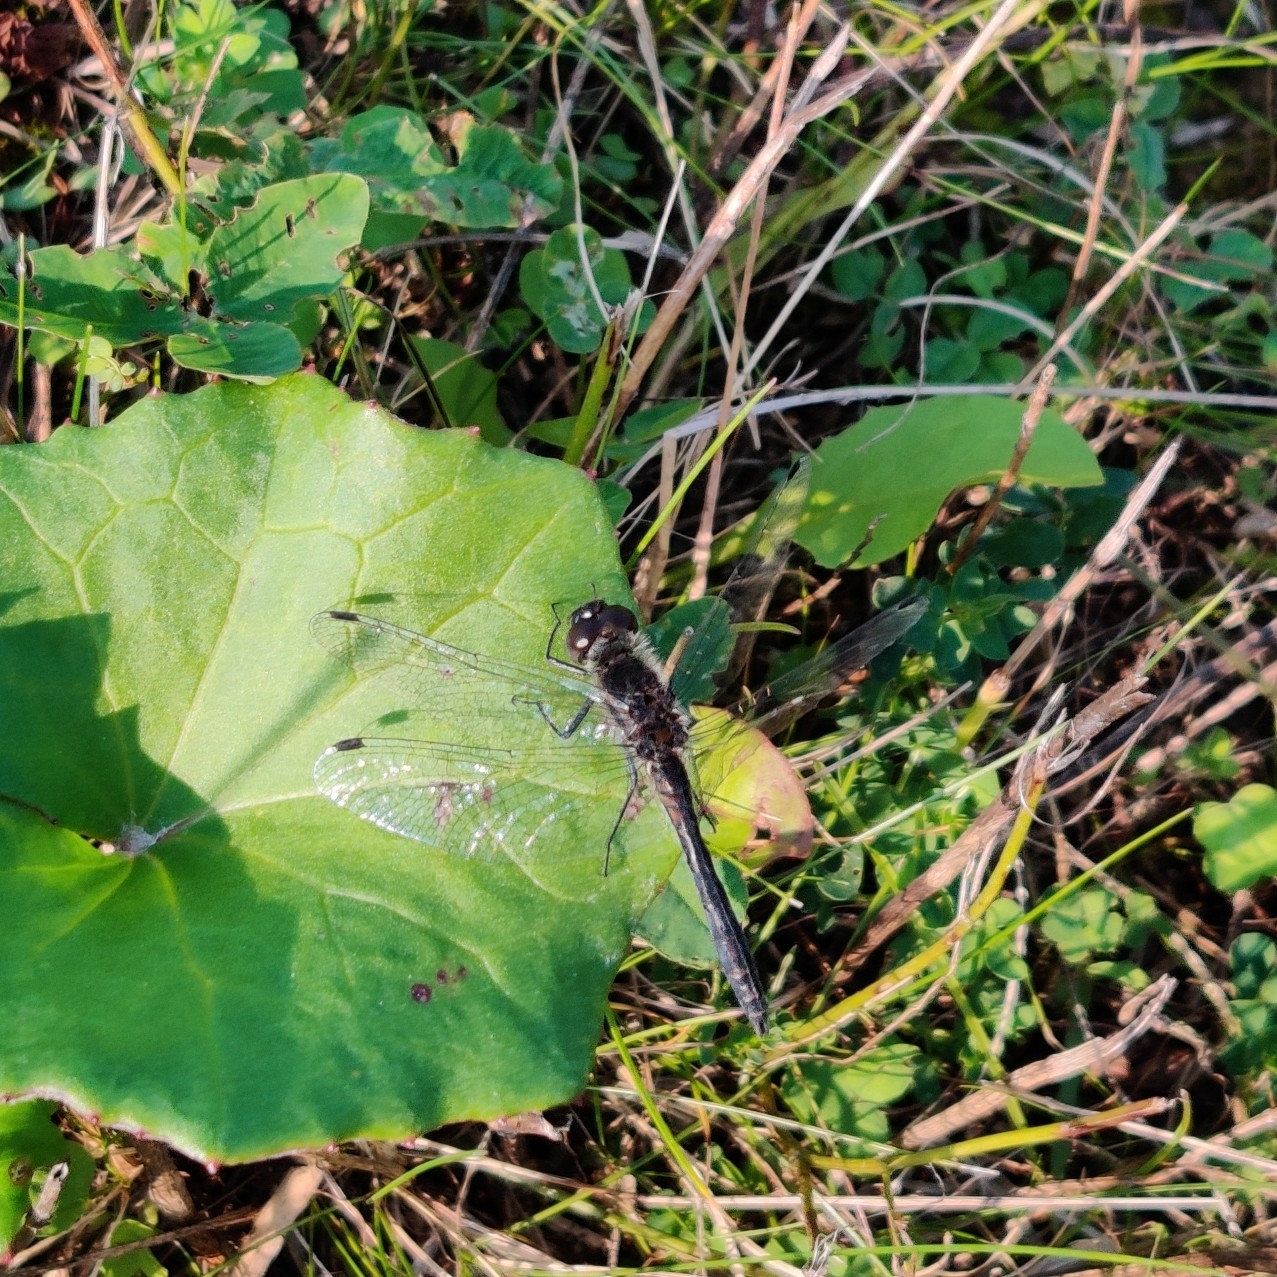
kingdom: Animalia
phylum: Arthropoda
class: Insecta
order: Odonata
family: Libellulidae
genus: Sympetrum
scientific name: Sympetrum danae
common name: Black darter
